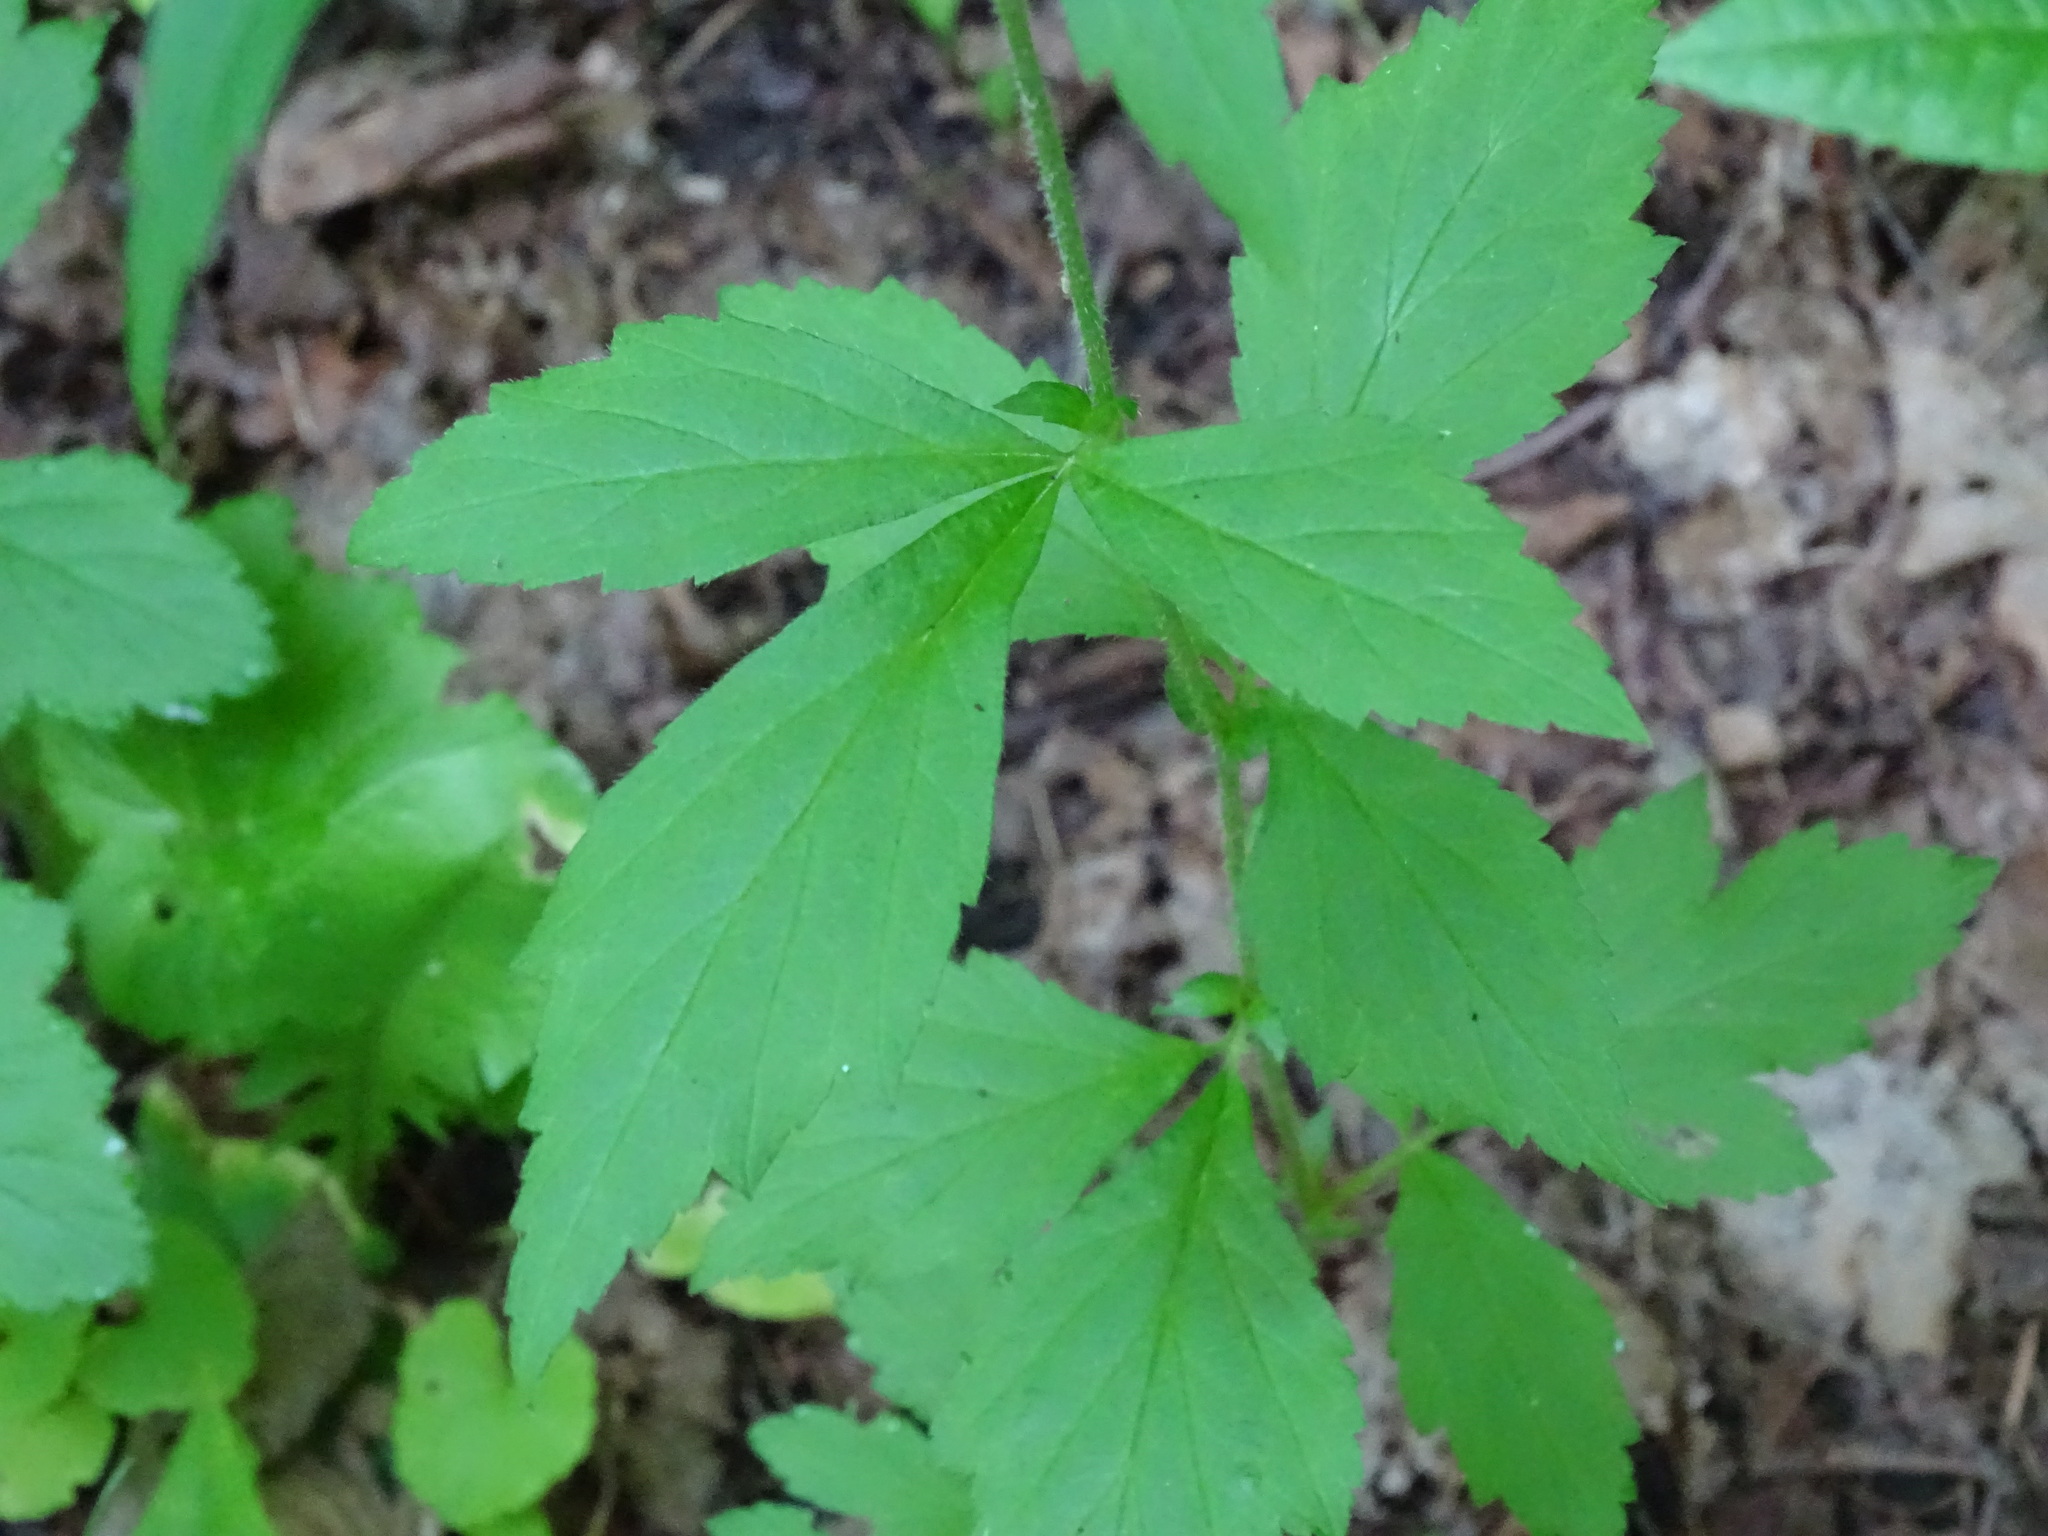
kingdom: Plantae
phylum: Tracheophyta
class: Magnoliopsida
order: Rosales
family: Rosaceae
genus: Geum
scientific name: Geum canadense
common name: White avens
